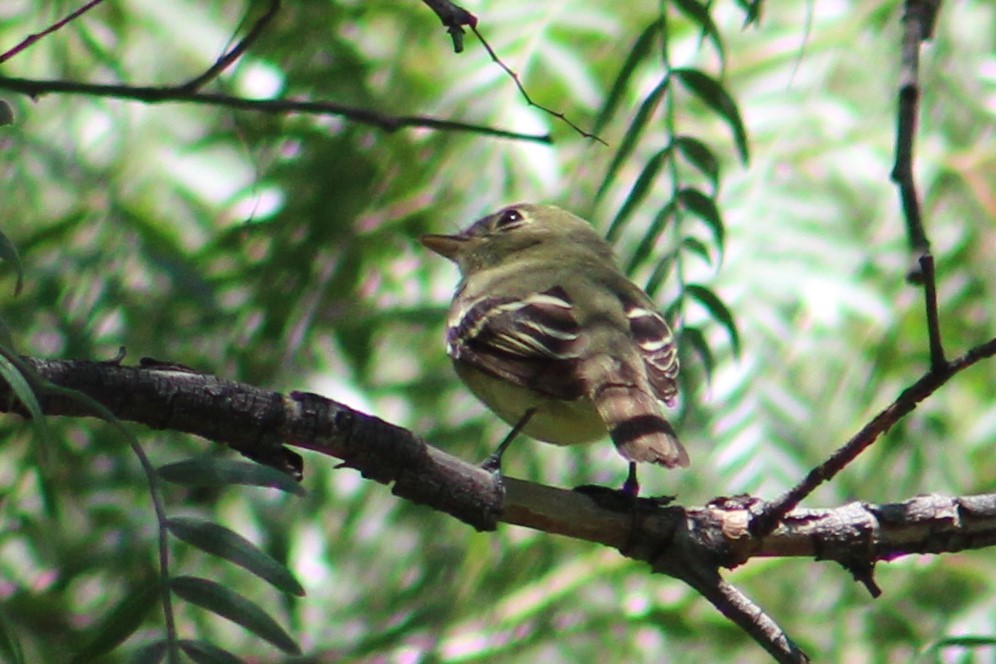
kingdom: Animalia
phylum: Chordata
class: Aves
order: Passeriformes
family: Tyrannidae
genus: Empidonax
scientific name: Empidonax difficilis
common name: Pacific-slope flycatcher
